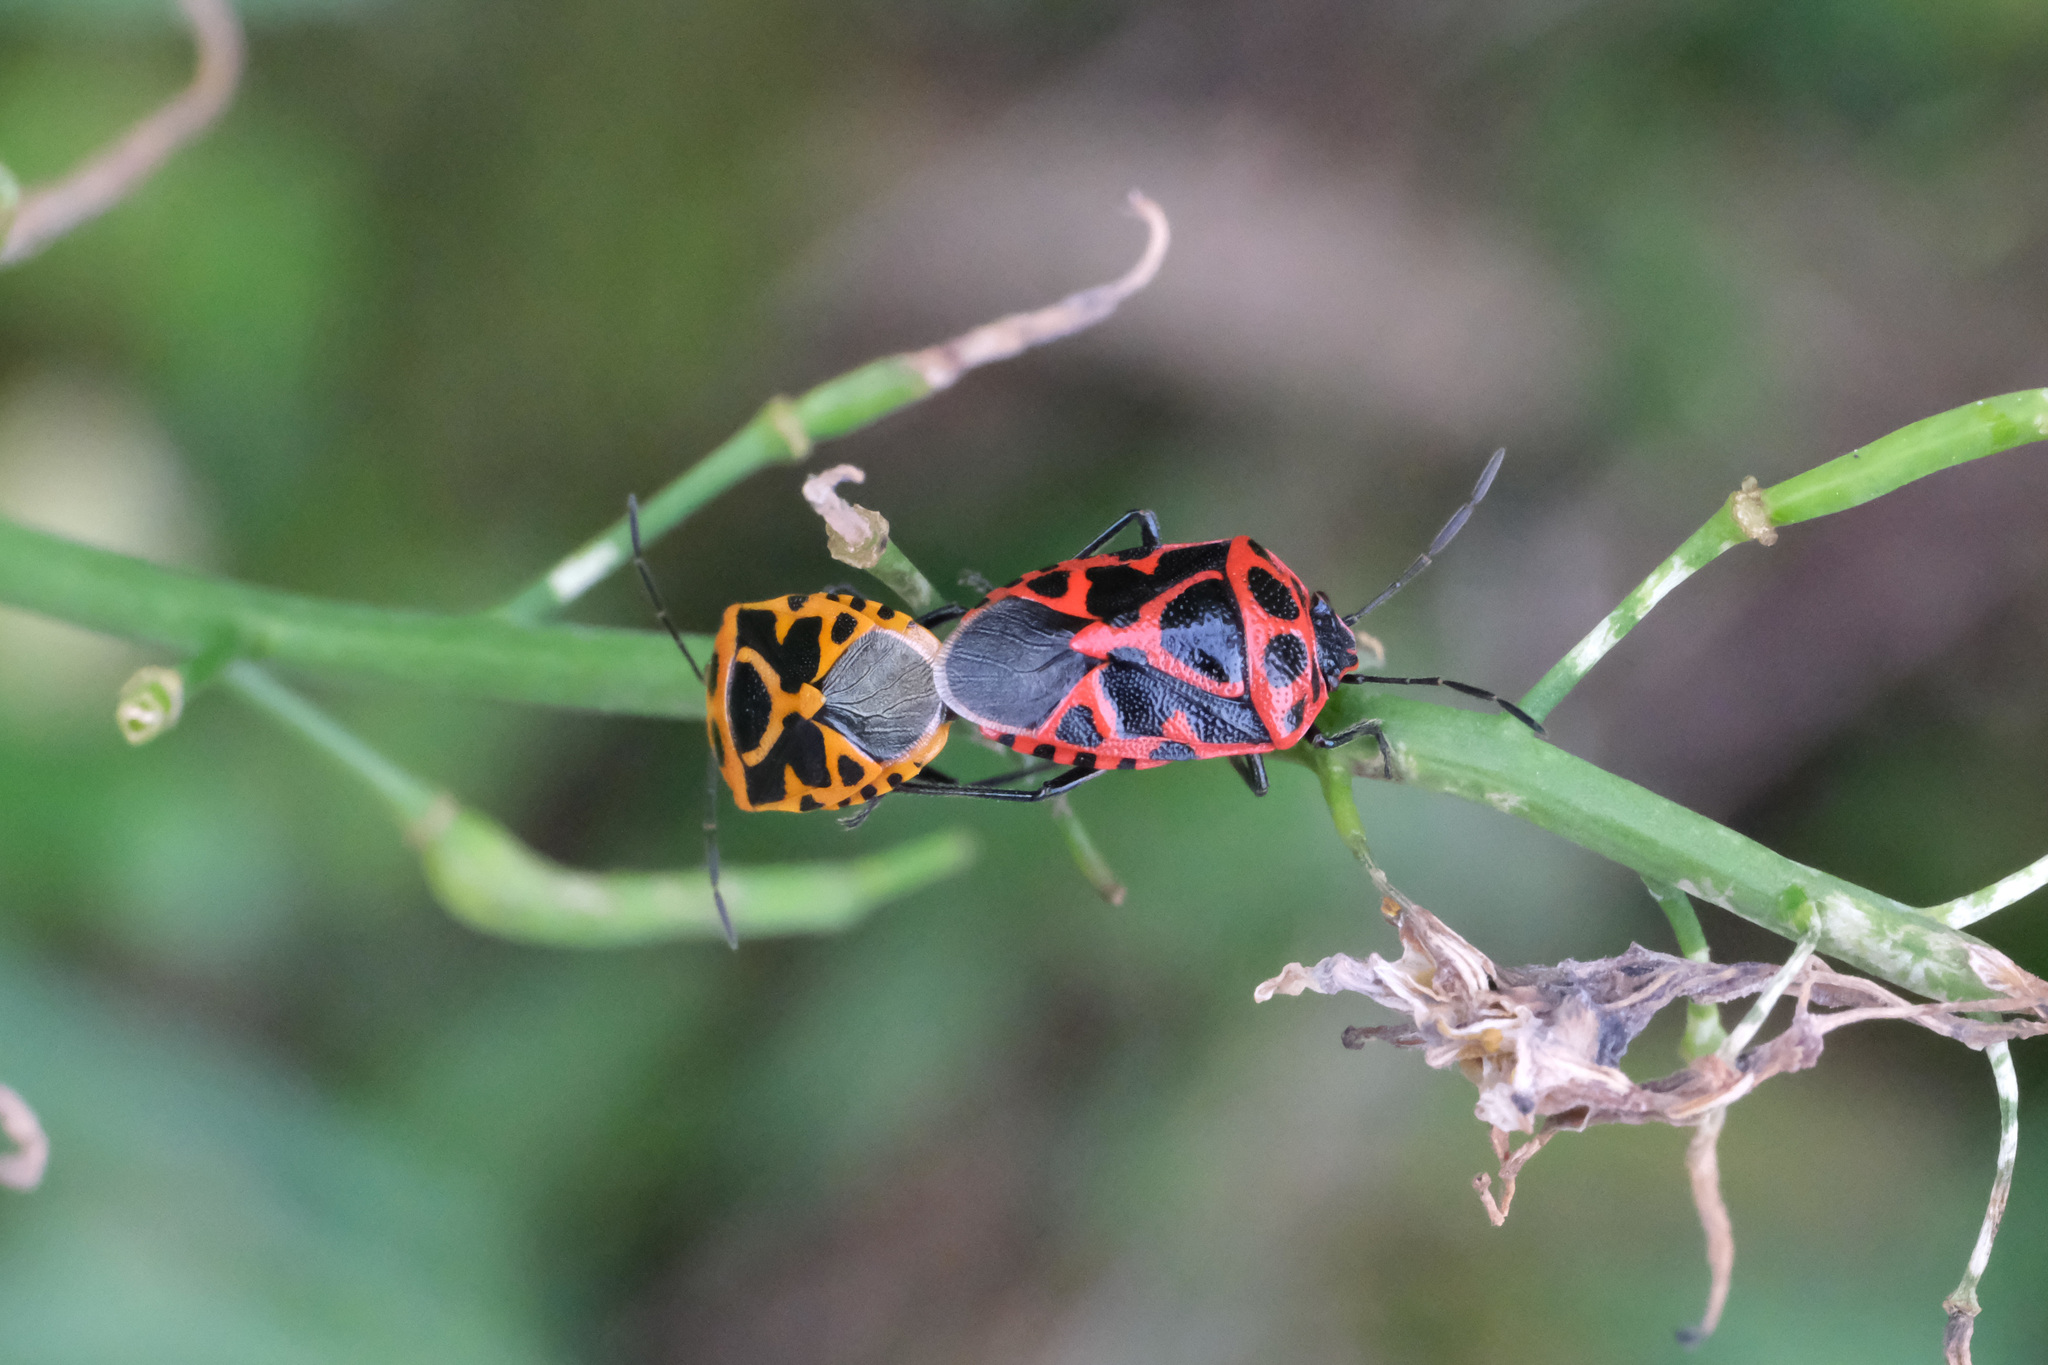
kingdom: Animalia
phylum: Arthropoda
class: Insecta
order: Hemiptera
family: Pentatomidae
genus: Eurydema
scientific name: Eurydema dominulus
